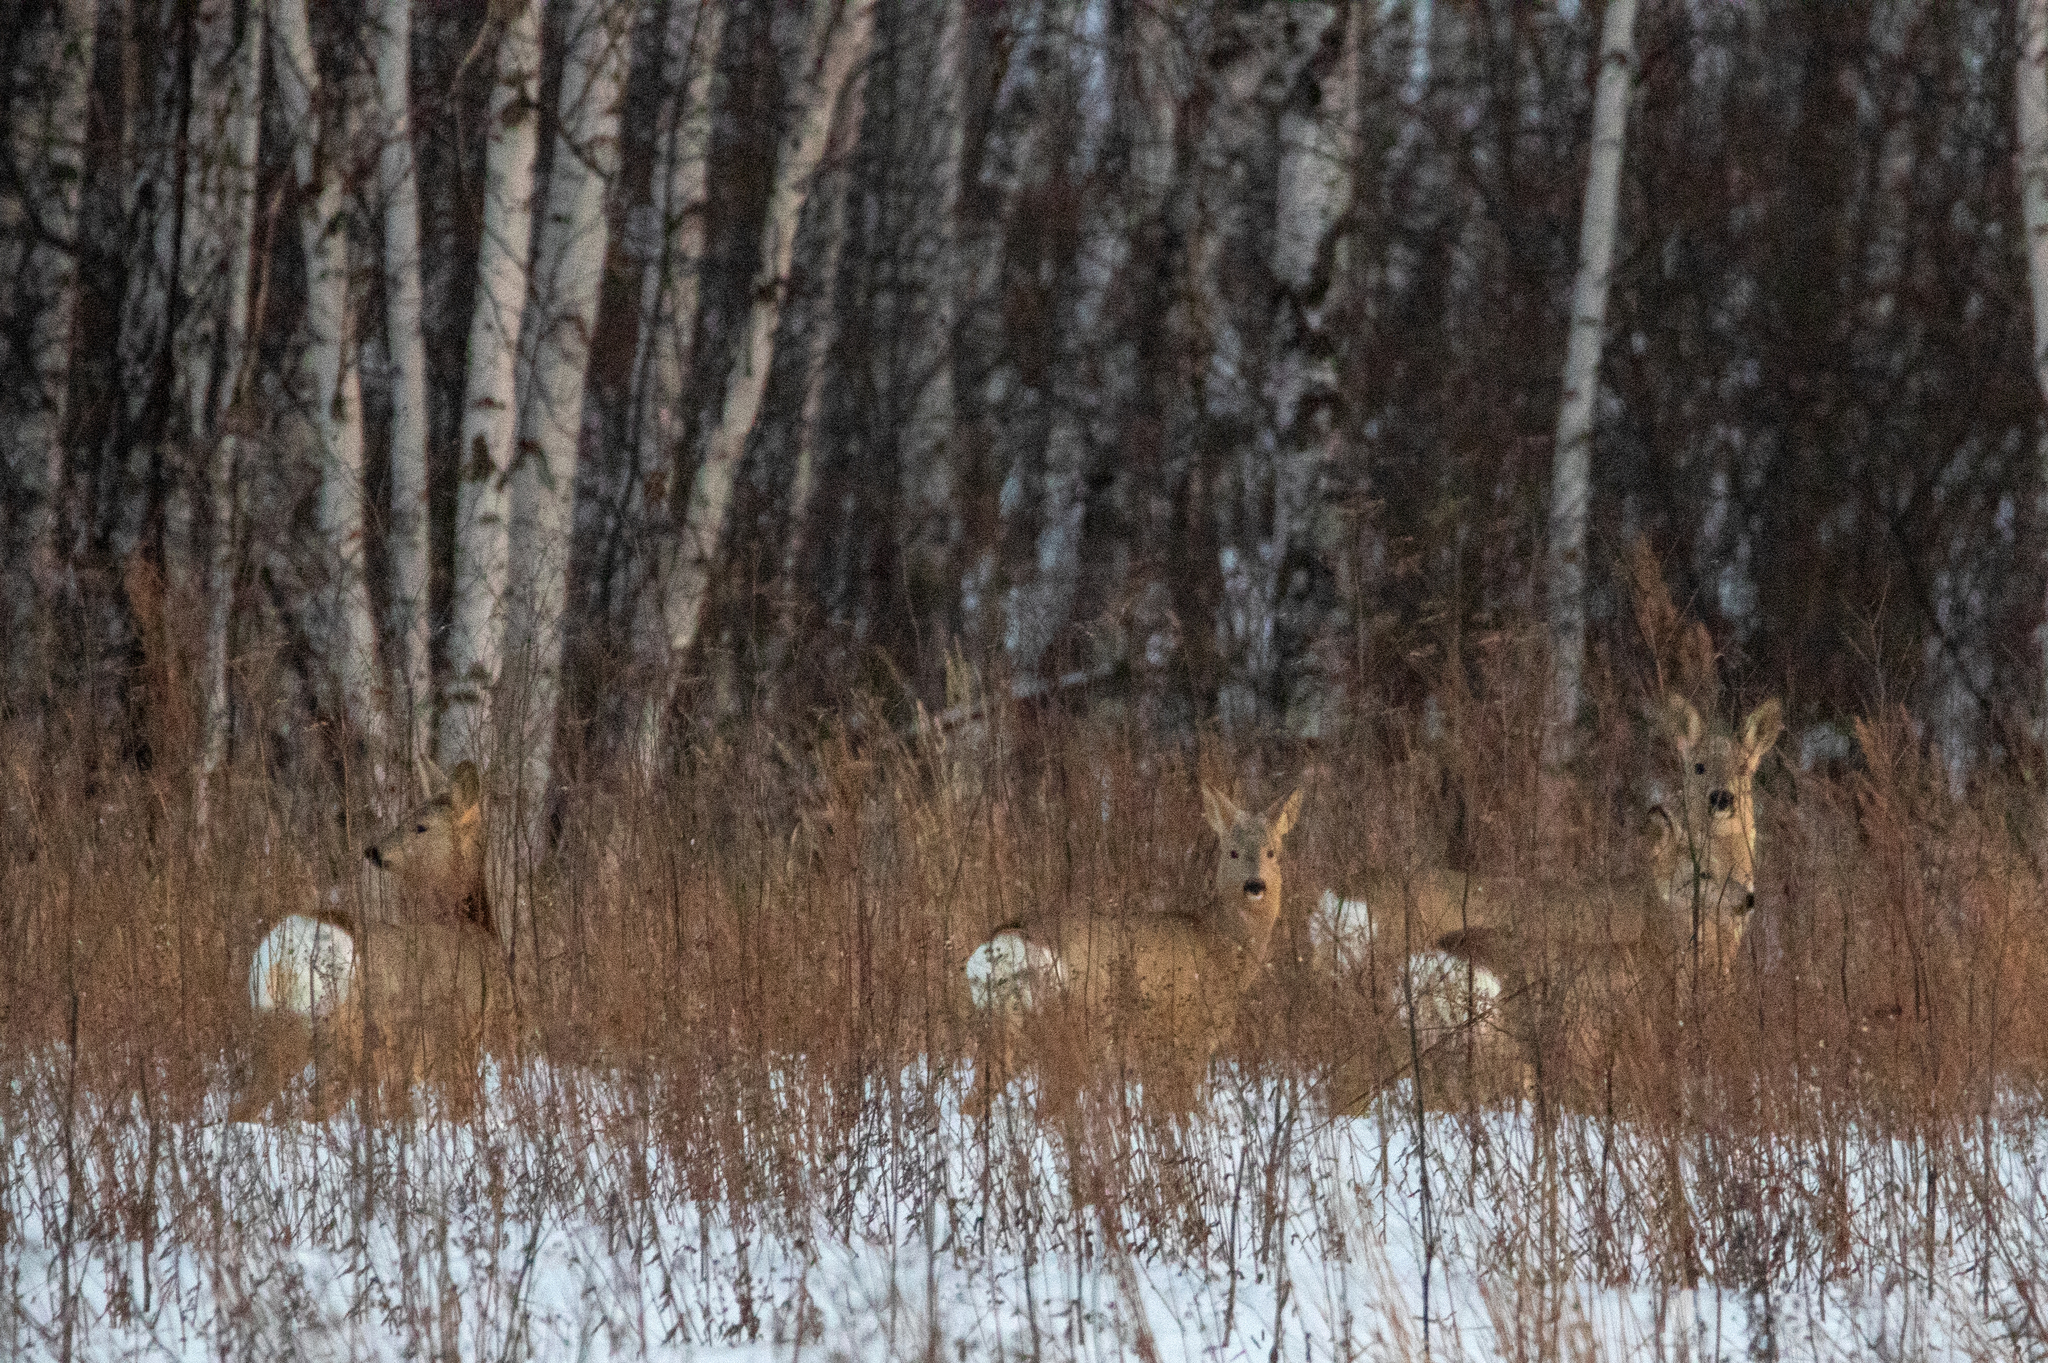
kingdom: Animalia
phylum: Chordata
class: Mammalia
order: Artiodactyla
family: Cervidae
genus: Capreolus
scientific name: Capreolus pygargus
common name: Siberian roe
